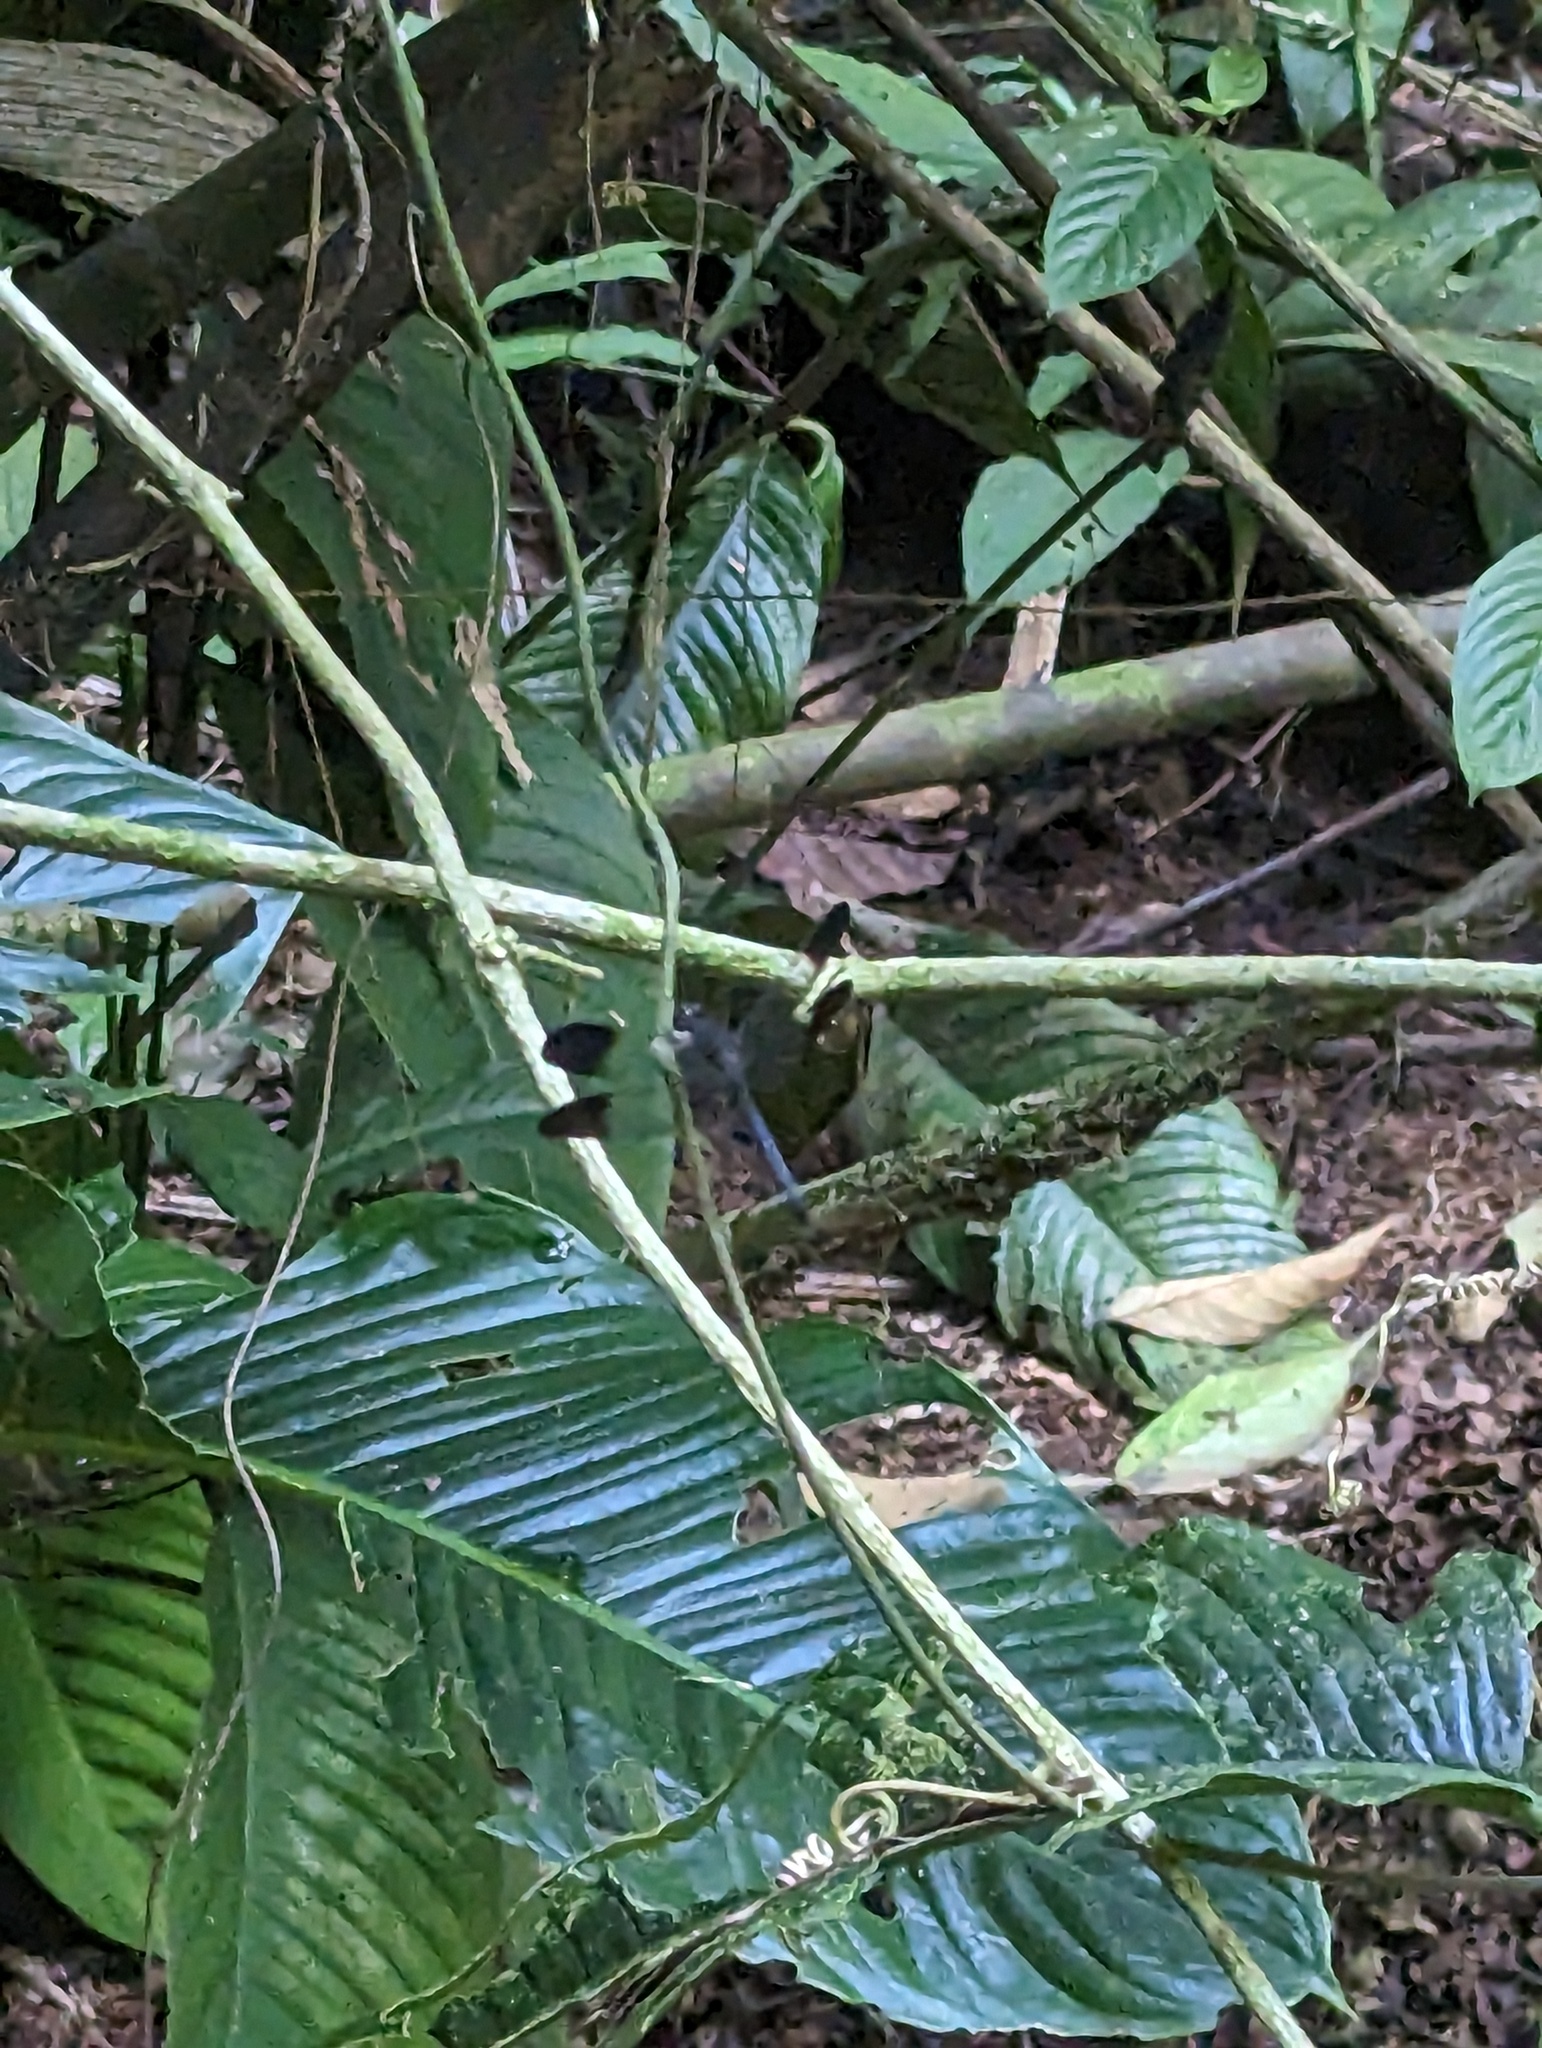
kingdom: Animalia
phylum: Arthropoda
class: Insecta
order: Odonata
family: Libellulidae
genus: Uracis
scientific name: Uracis fastigiata
